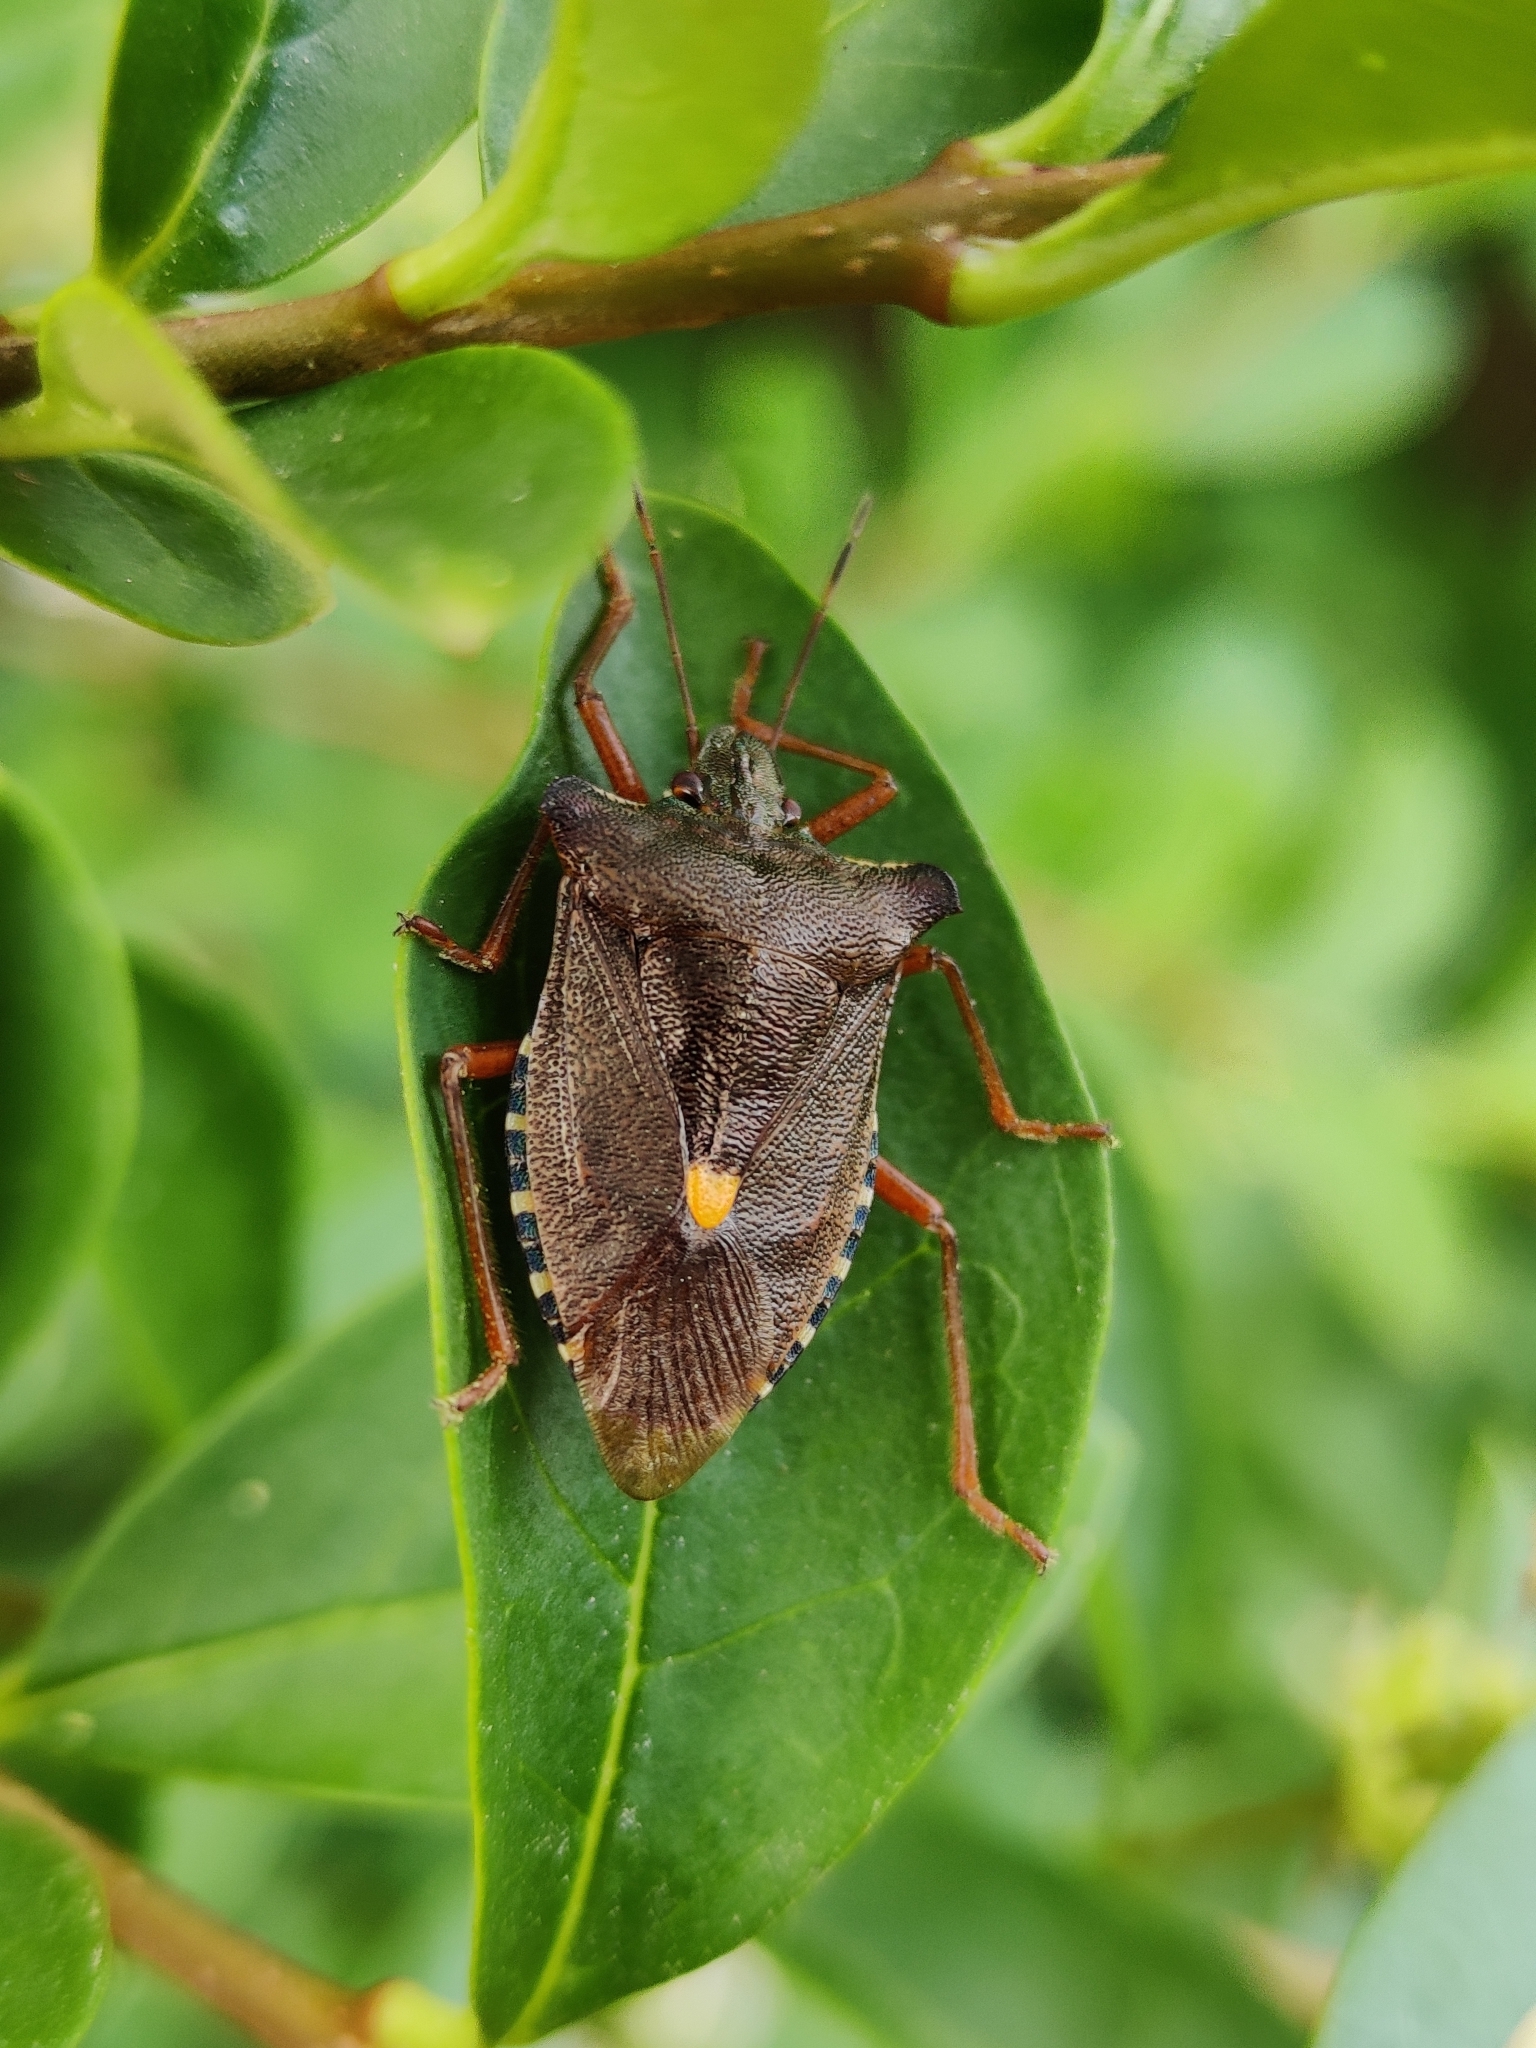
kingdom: Animalia
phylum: Arthropoda
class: Insecta
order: Hemiptera
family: Pentatomidae
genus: Pentatoma
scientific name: Pentatoma rufipes
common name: Forest bug
